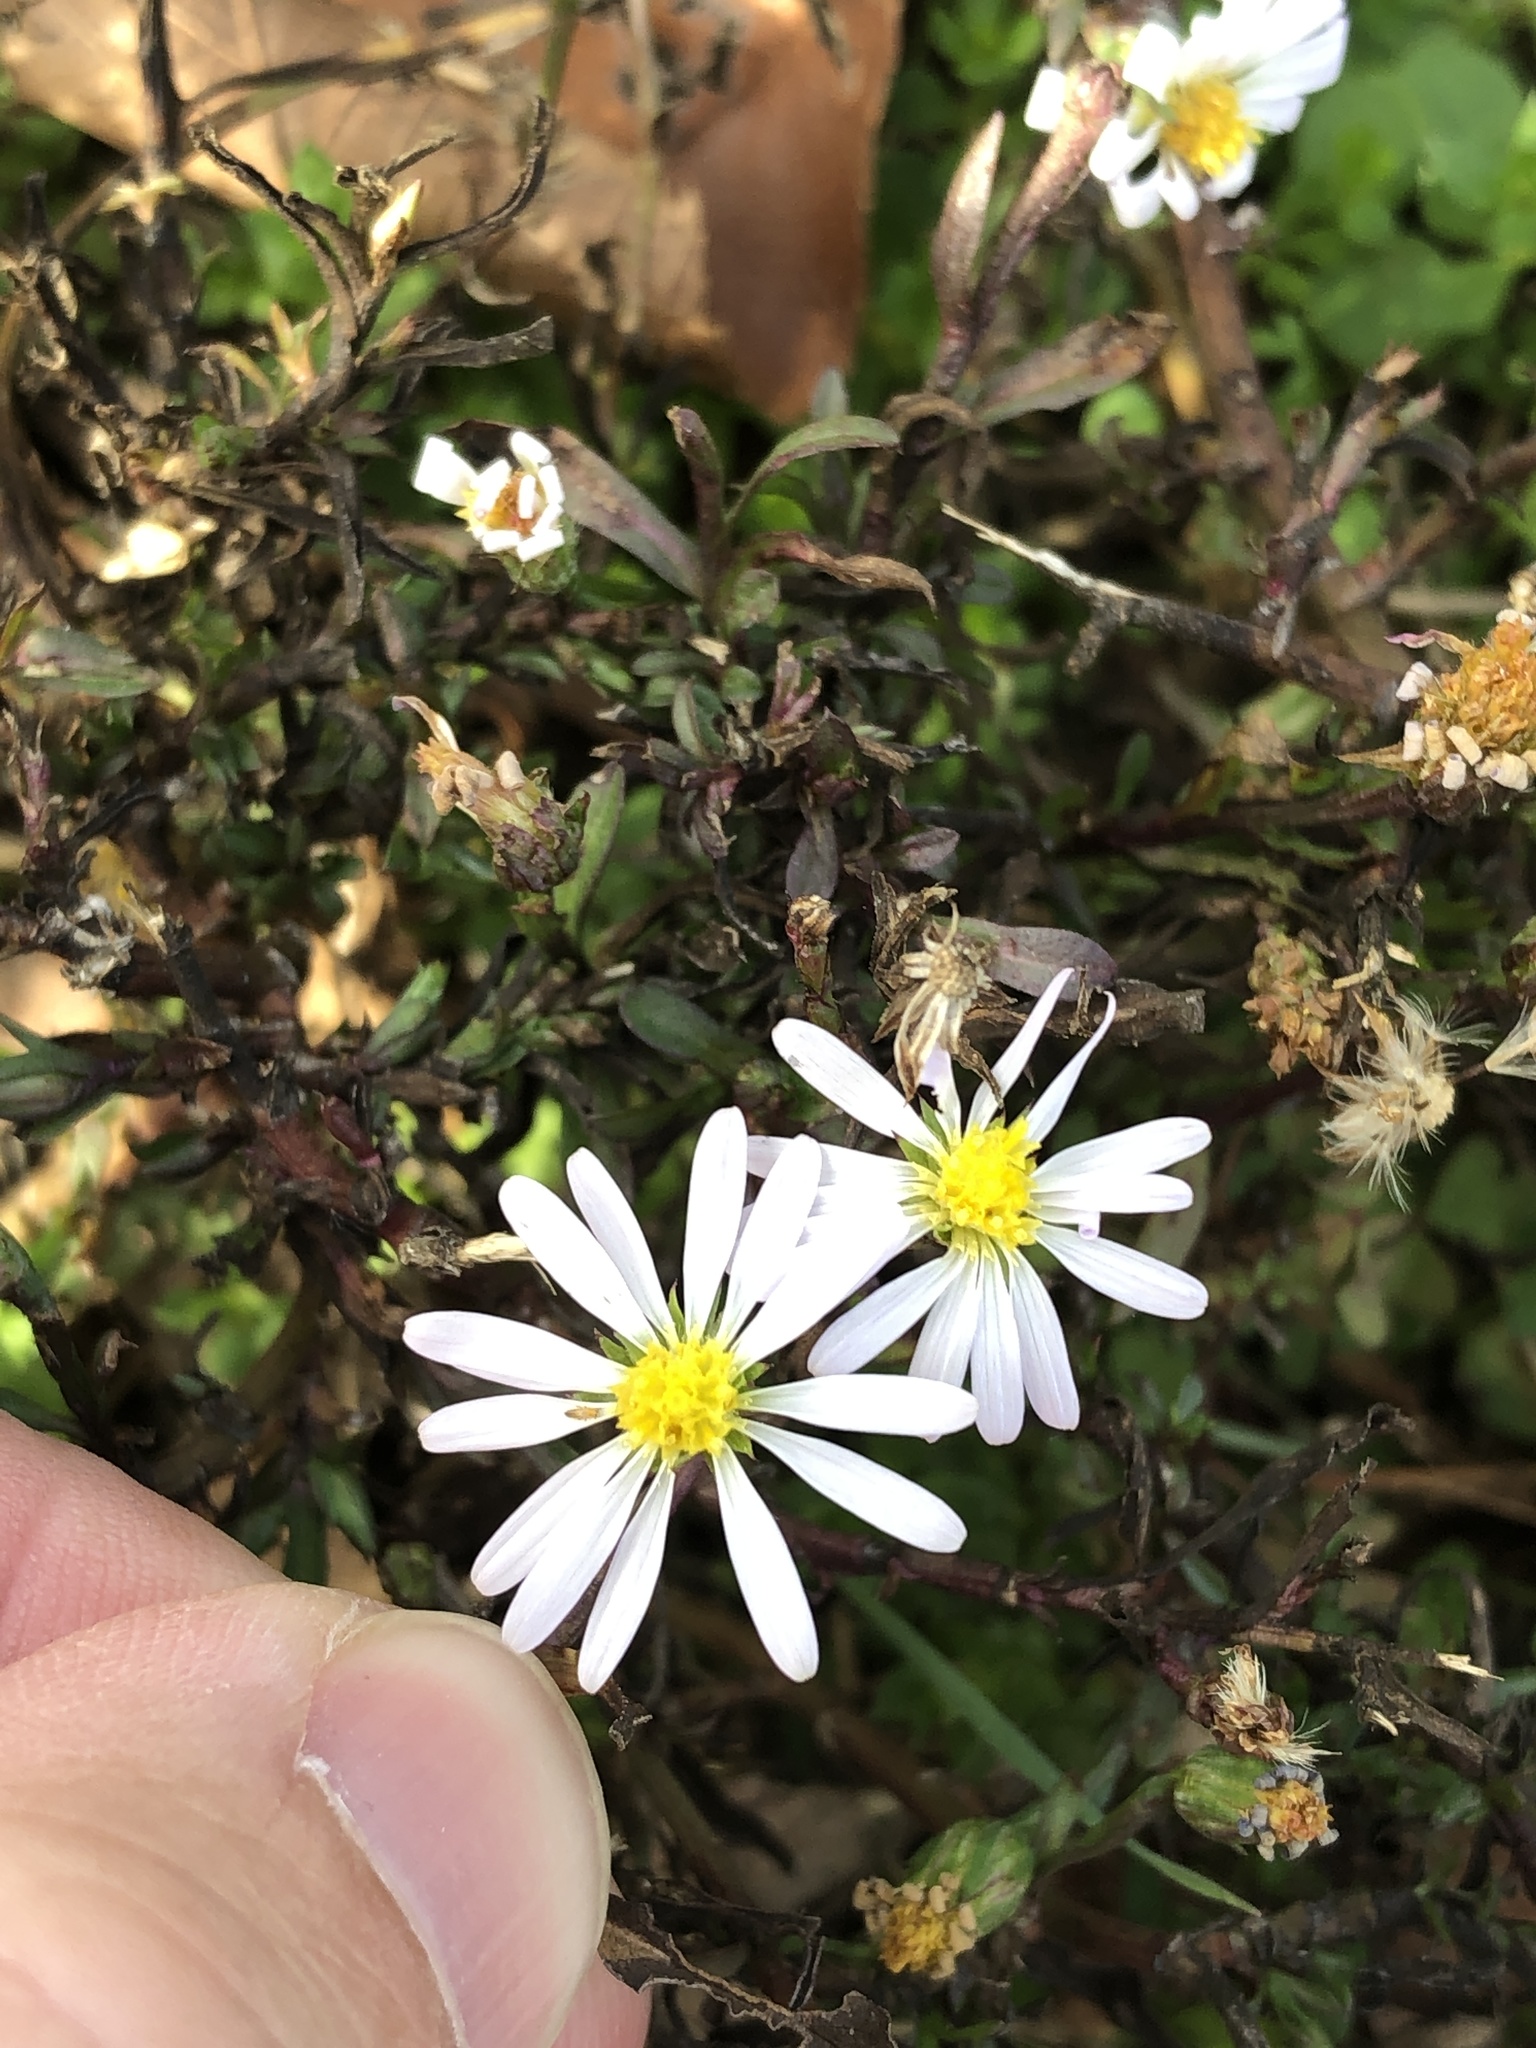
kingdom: Plantae
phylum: Tracheophyta
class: Magnoliopsida
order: Asterales
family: Asteraceae
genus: Symphyotrichum
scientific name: Symphyotrichum divaricatum
